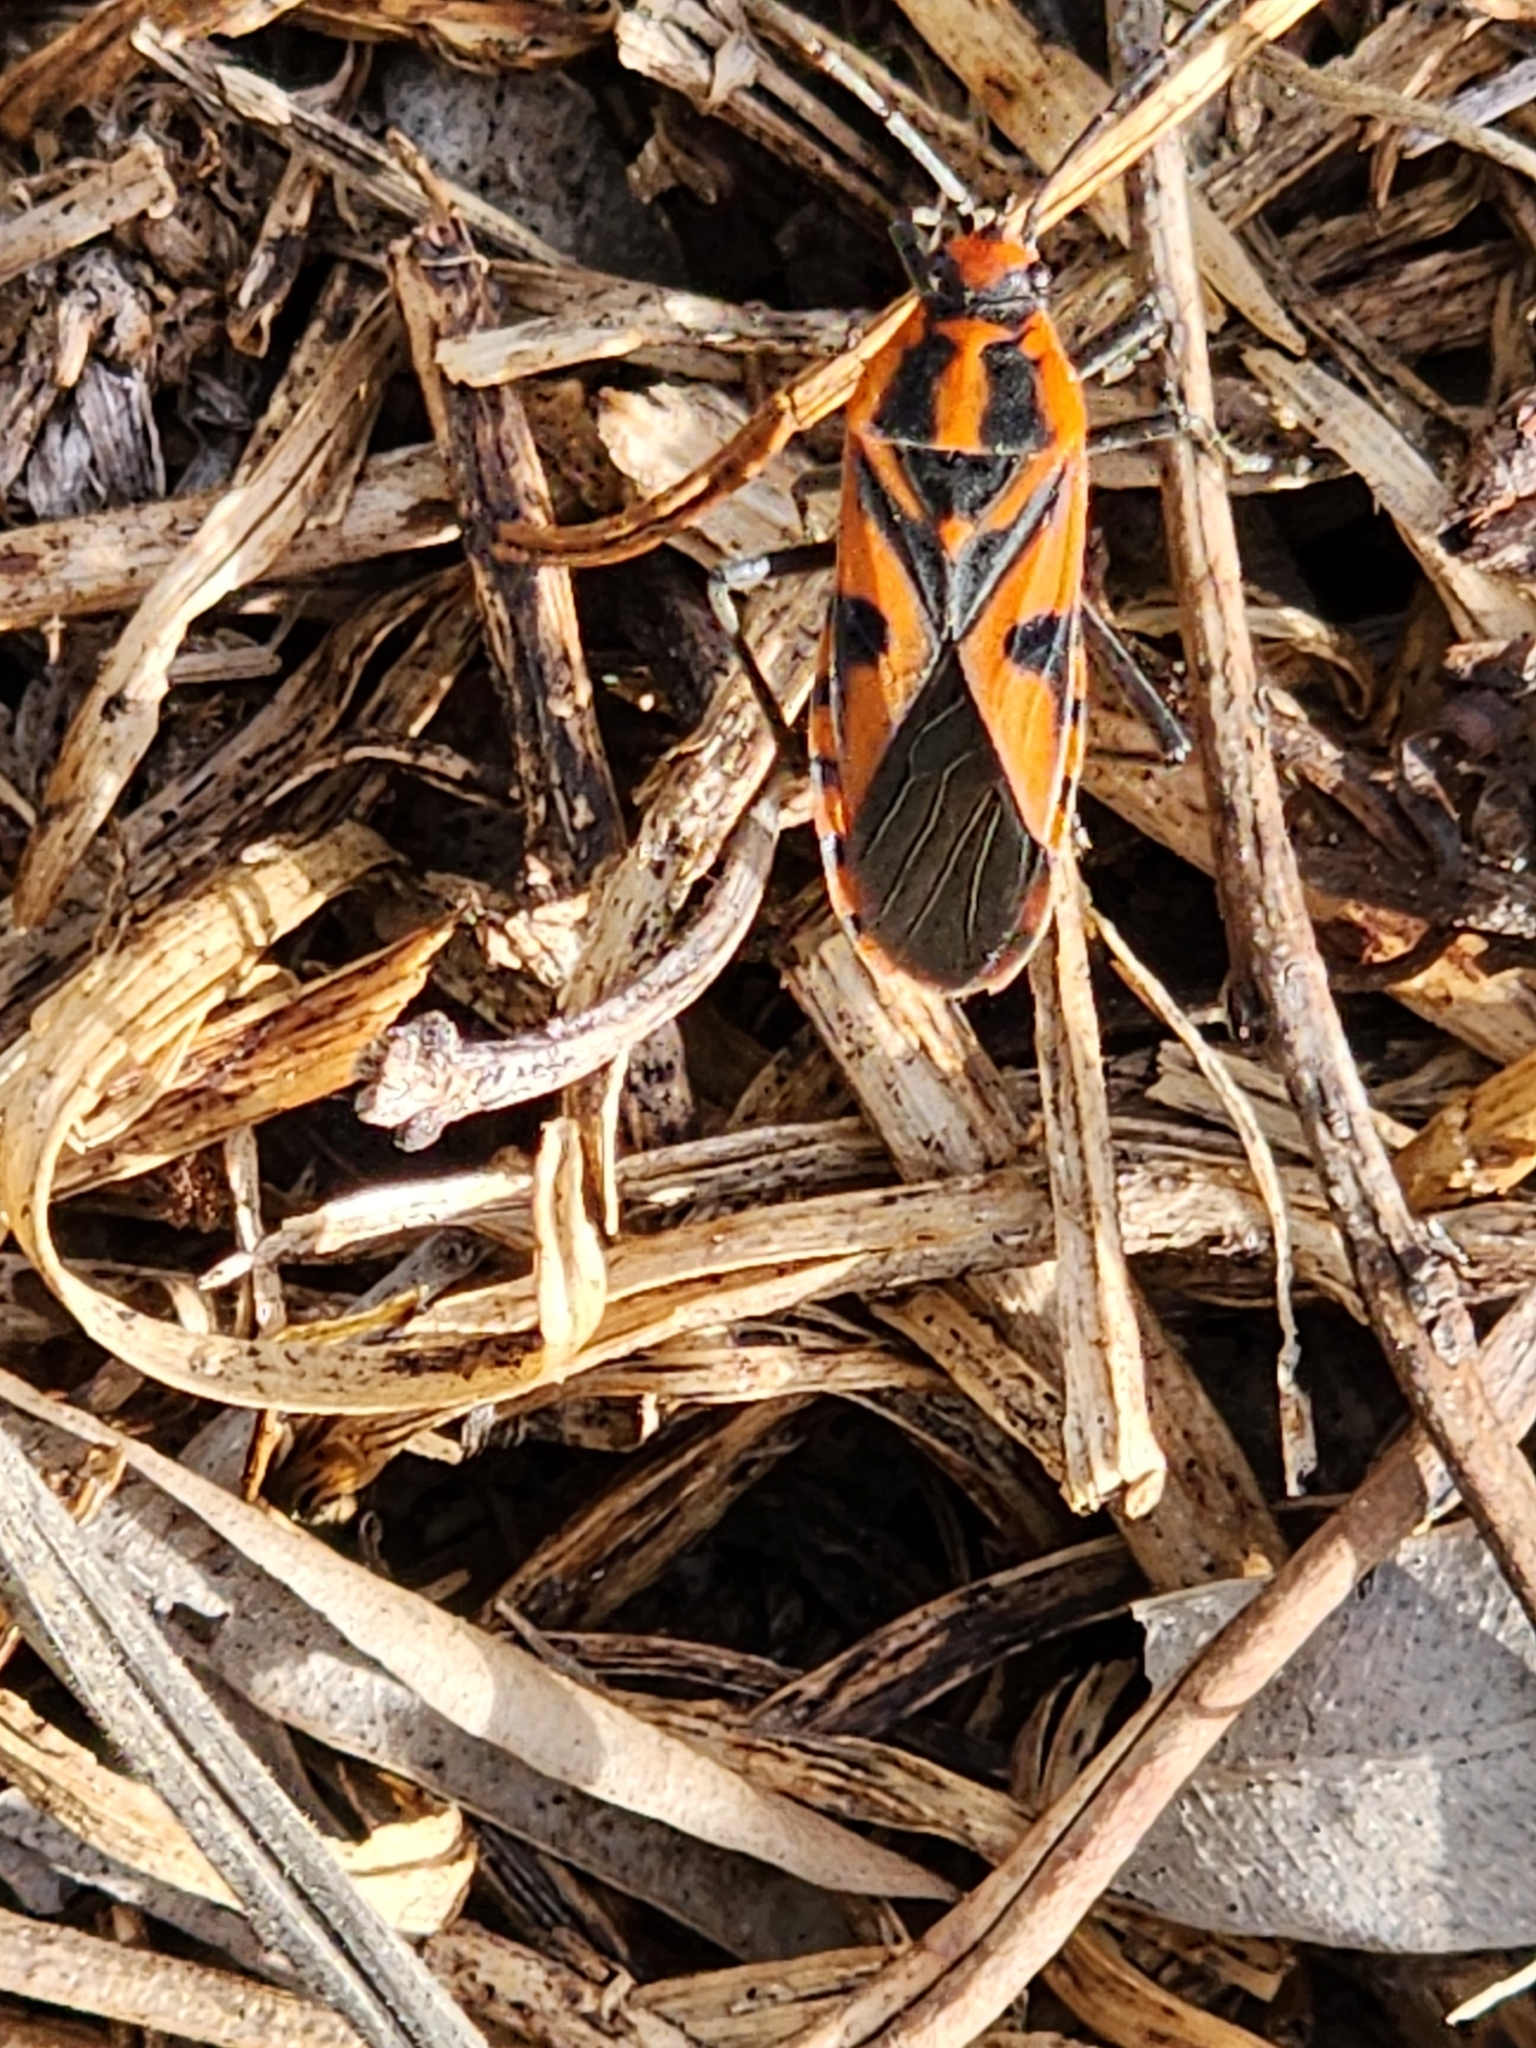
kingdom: Animalia
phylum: Arthropoda
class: Insecta
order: Hemiptera
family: Lygaeidae
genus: Spilostethus
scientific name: Spilostethus hospes
